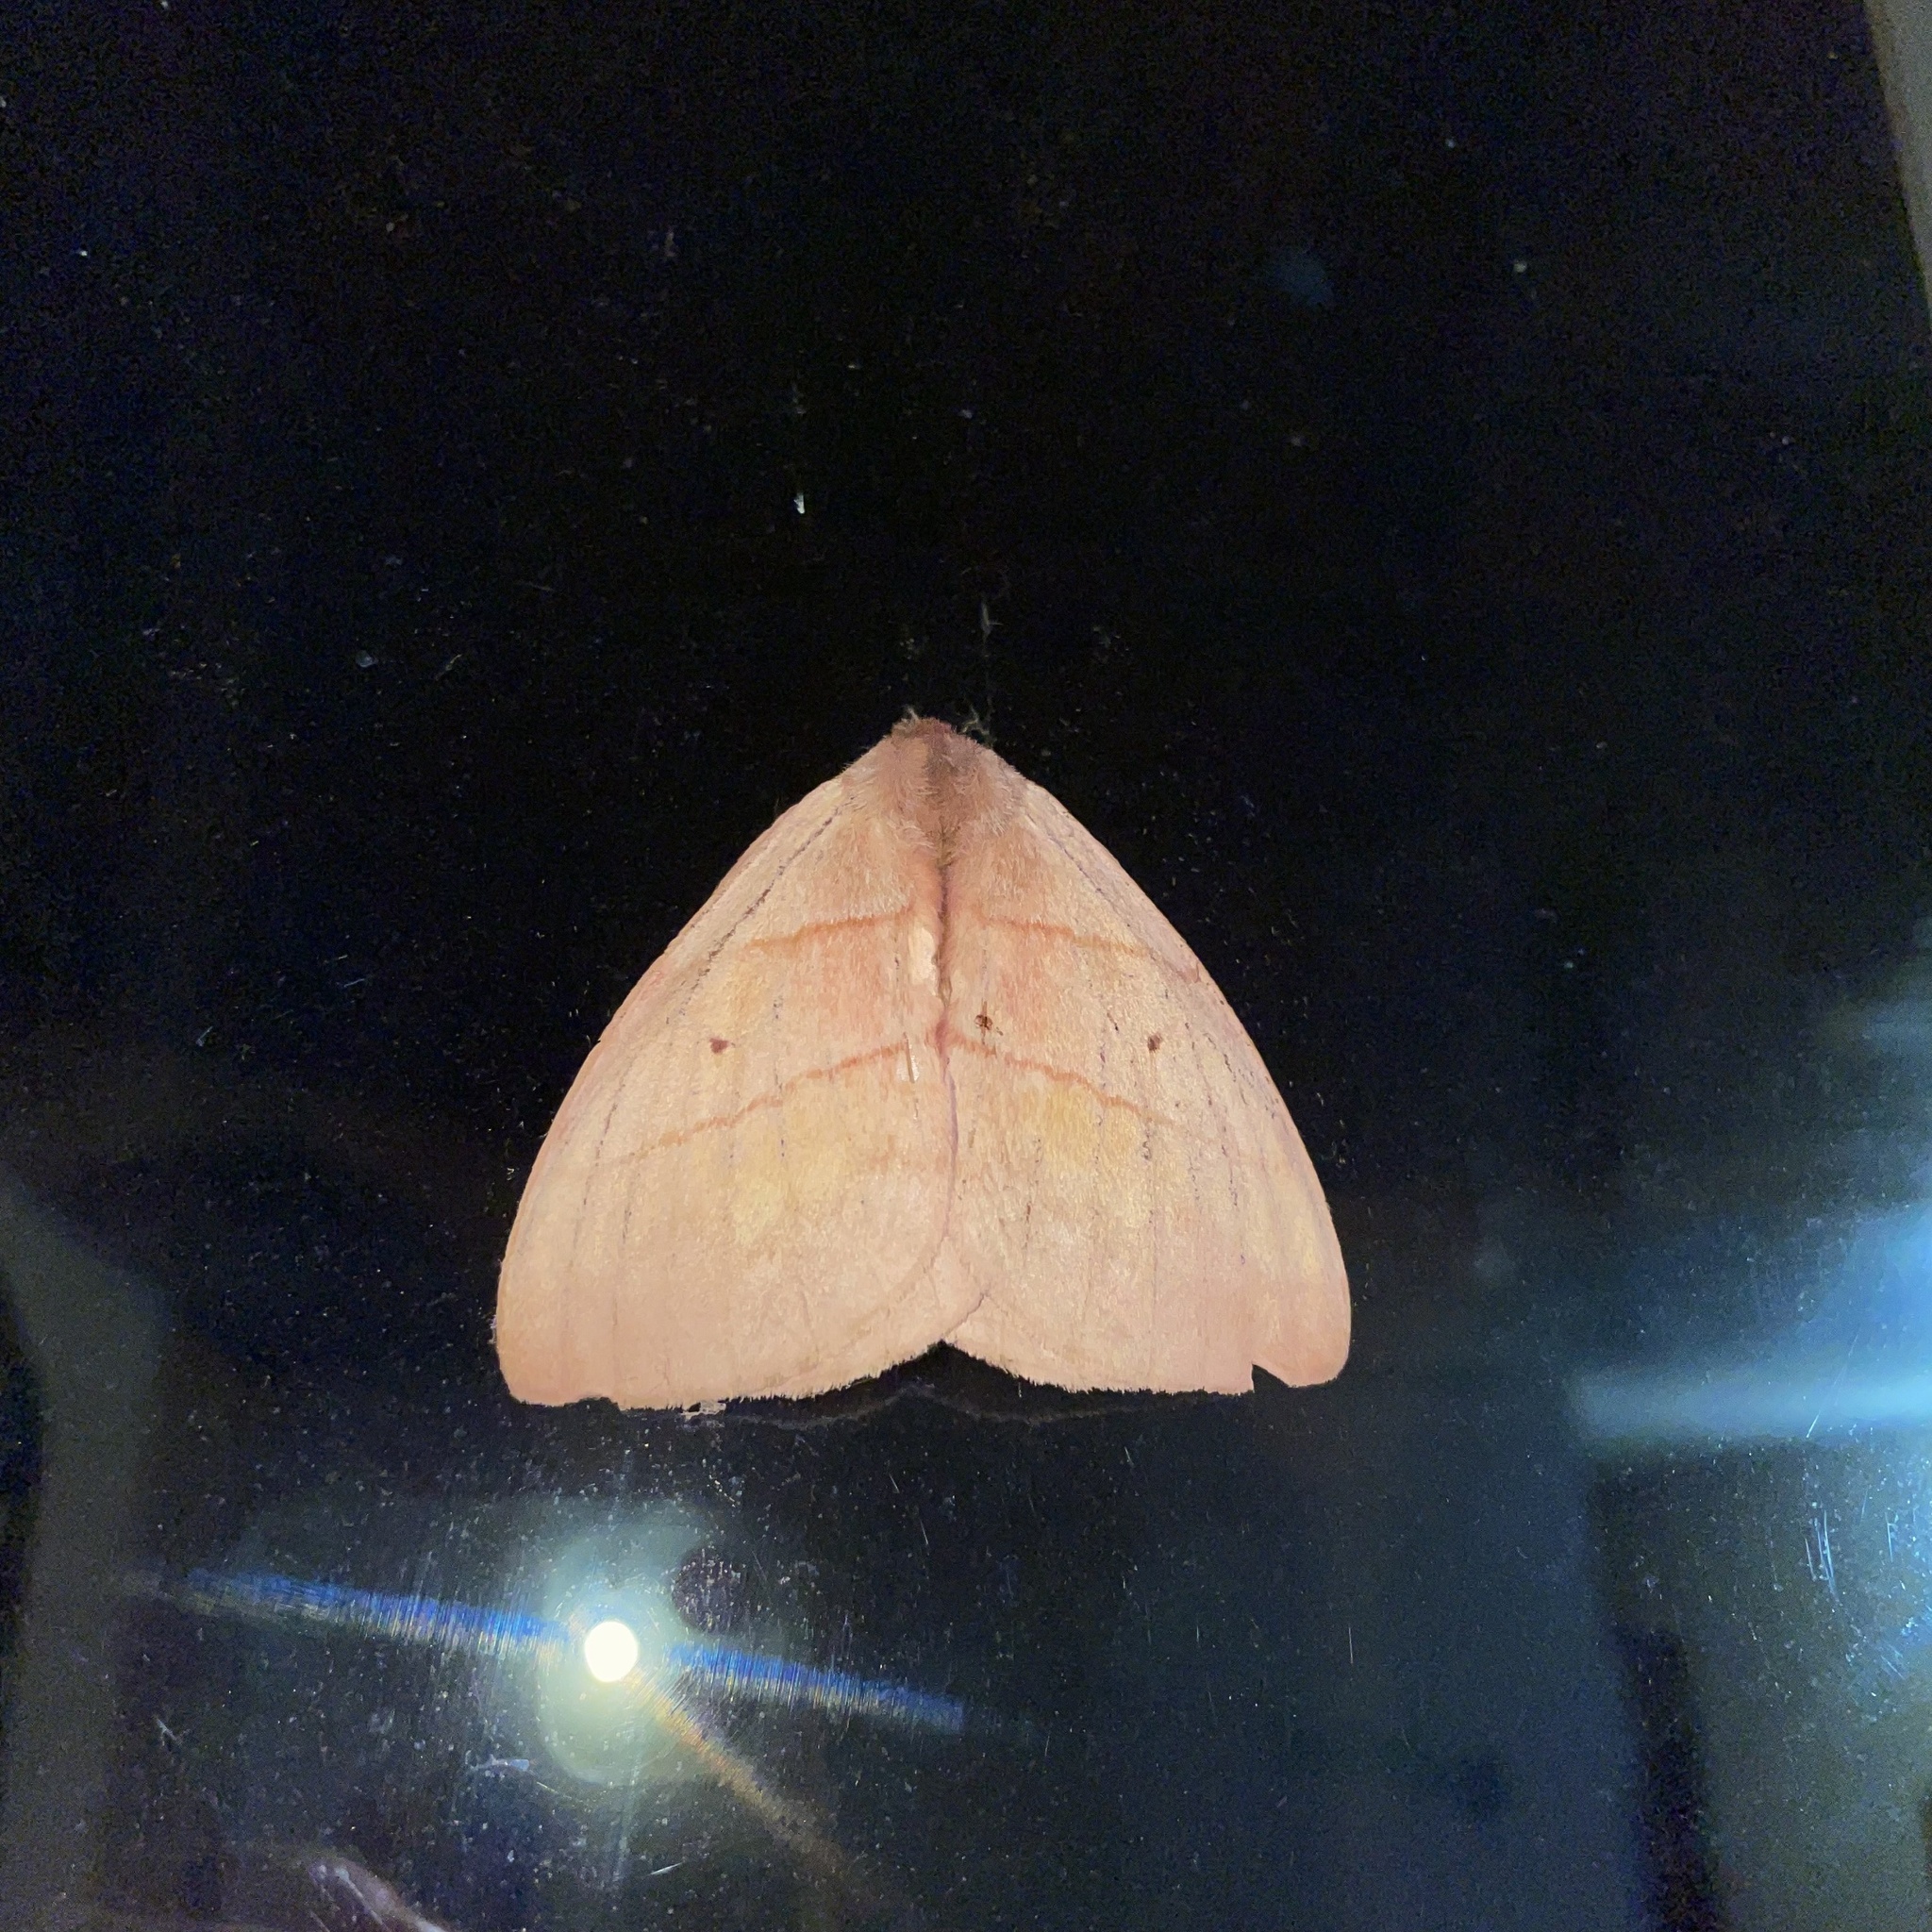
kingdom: Animalia
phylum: Arthropoda
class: Insecta
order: Lepidoptera
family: Saturniidae
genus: Periphoba
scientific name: Periphoba augur
